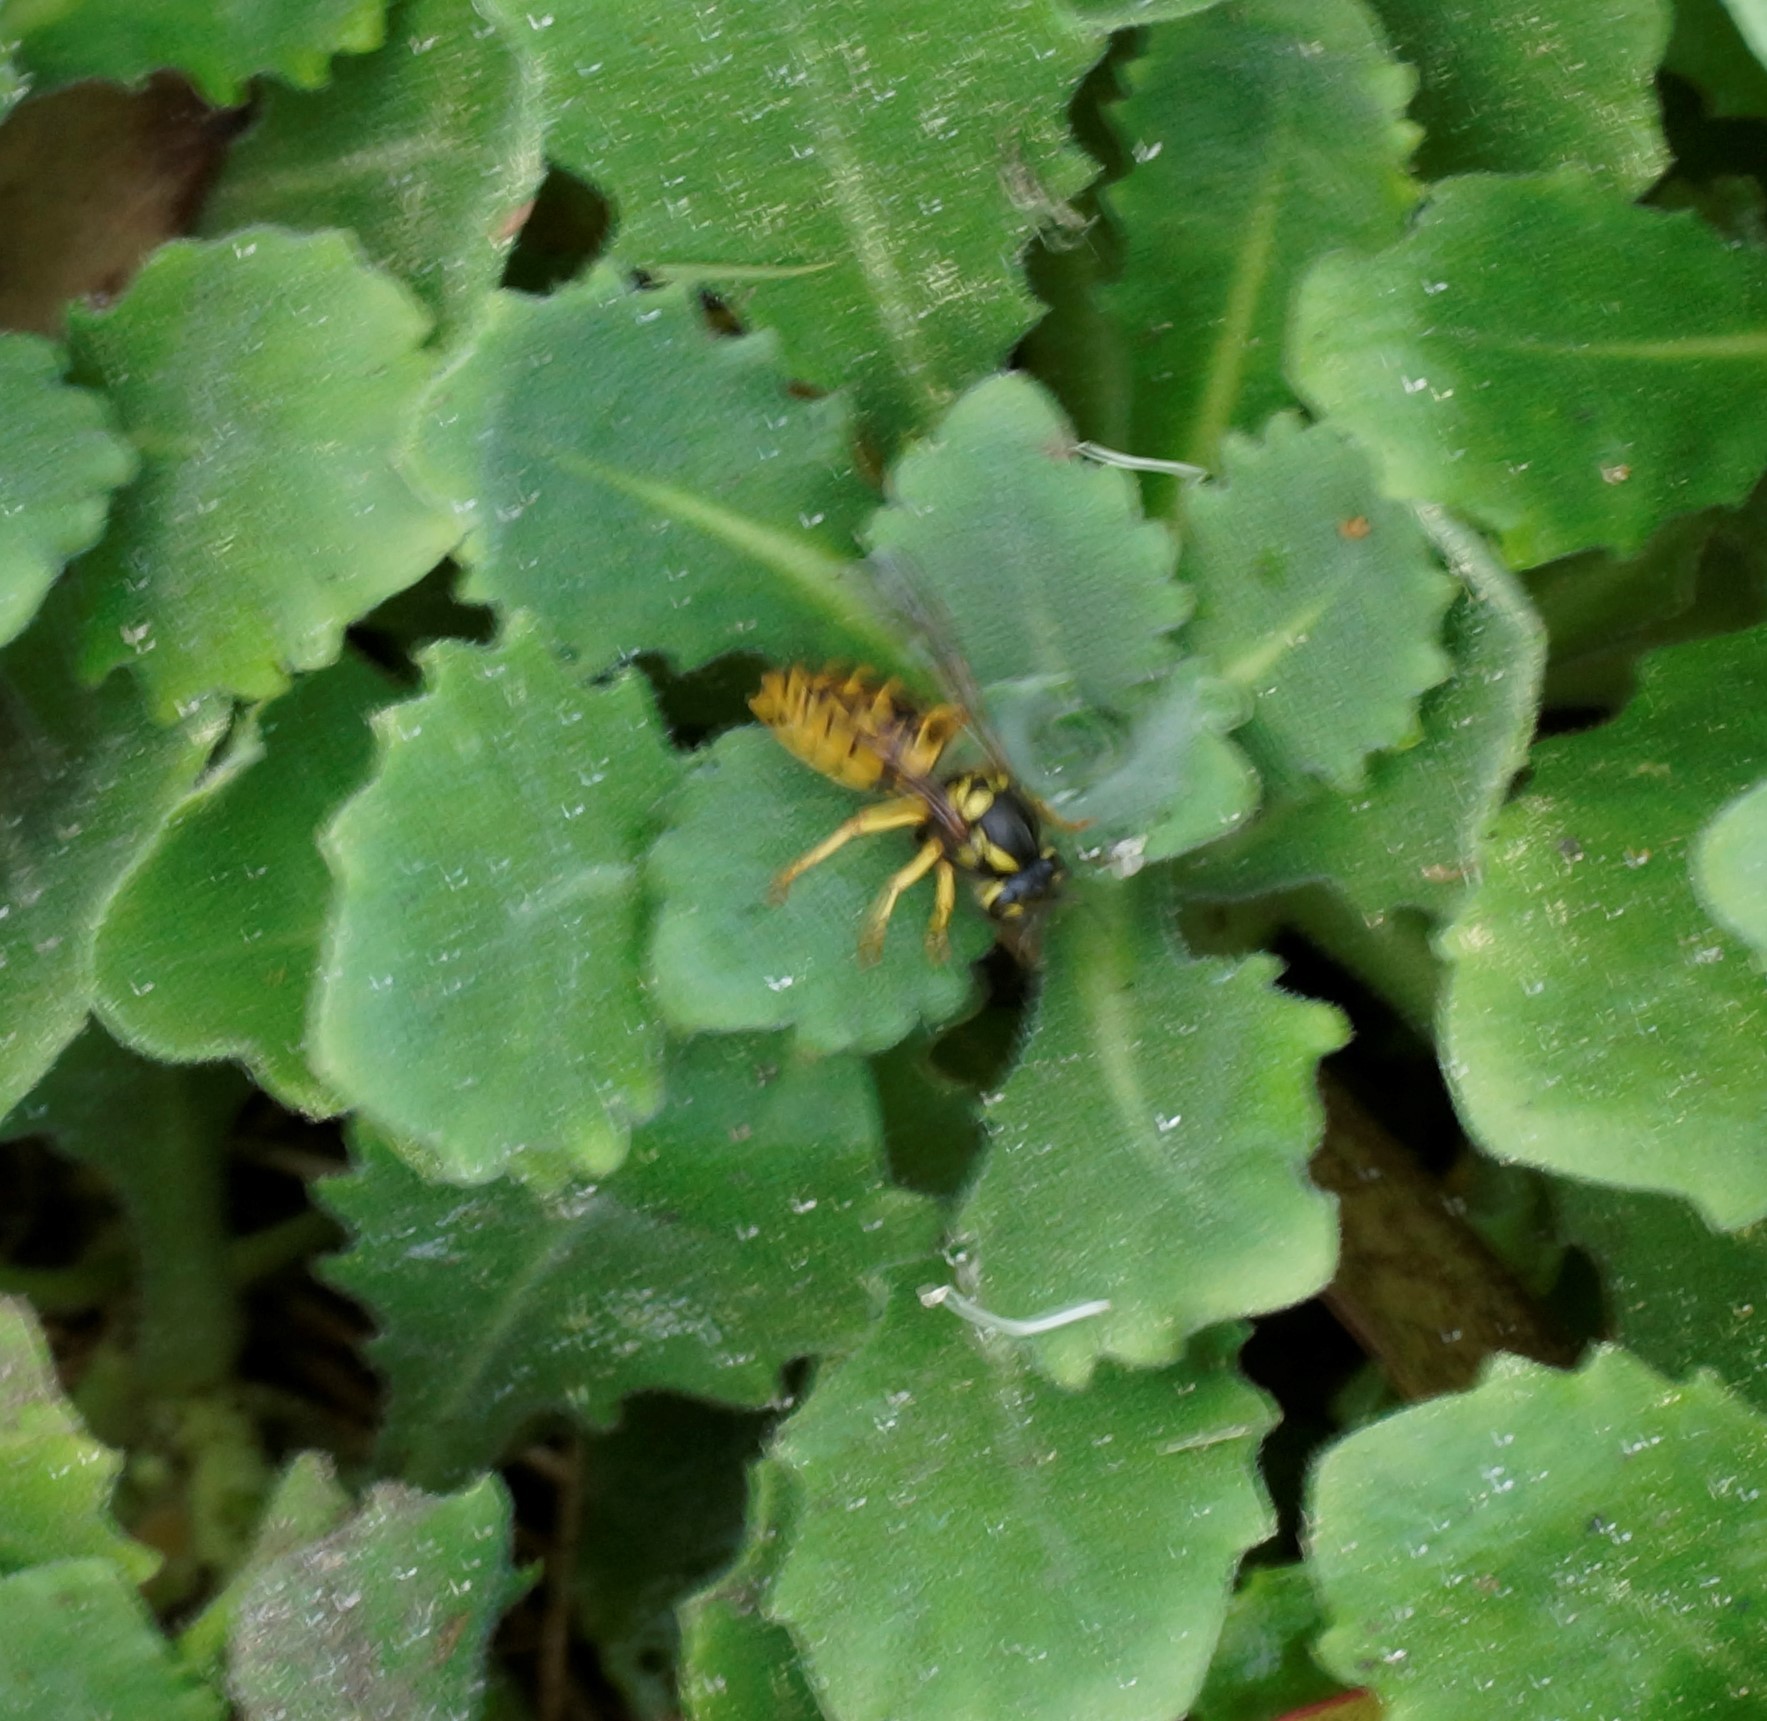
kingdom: Animalia
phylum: Arthropoda
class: Insecta
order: Hymenoptera
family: Vespidae
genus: Vespula
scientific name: Vespula germanica
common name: German wasp
